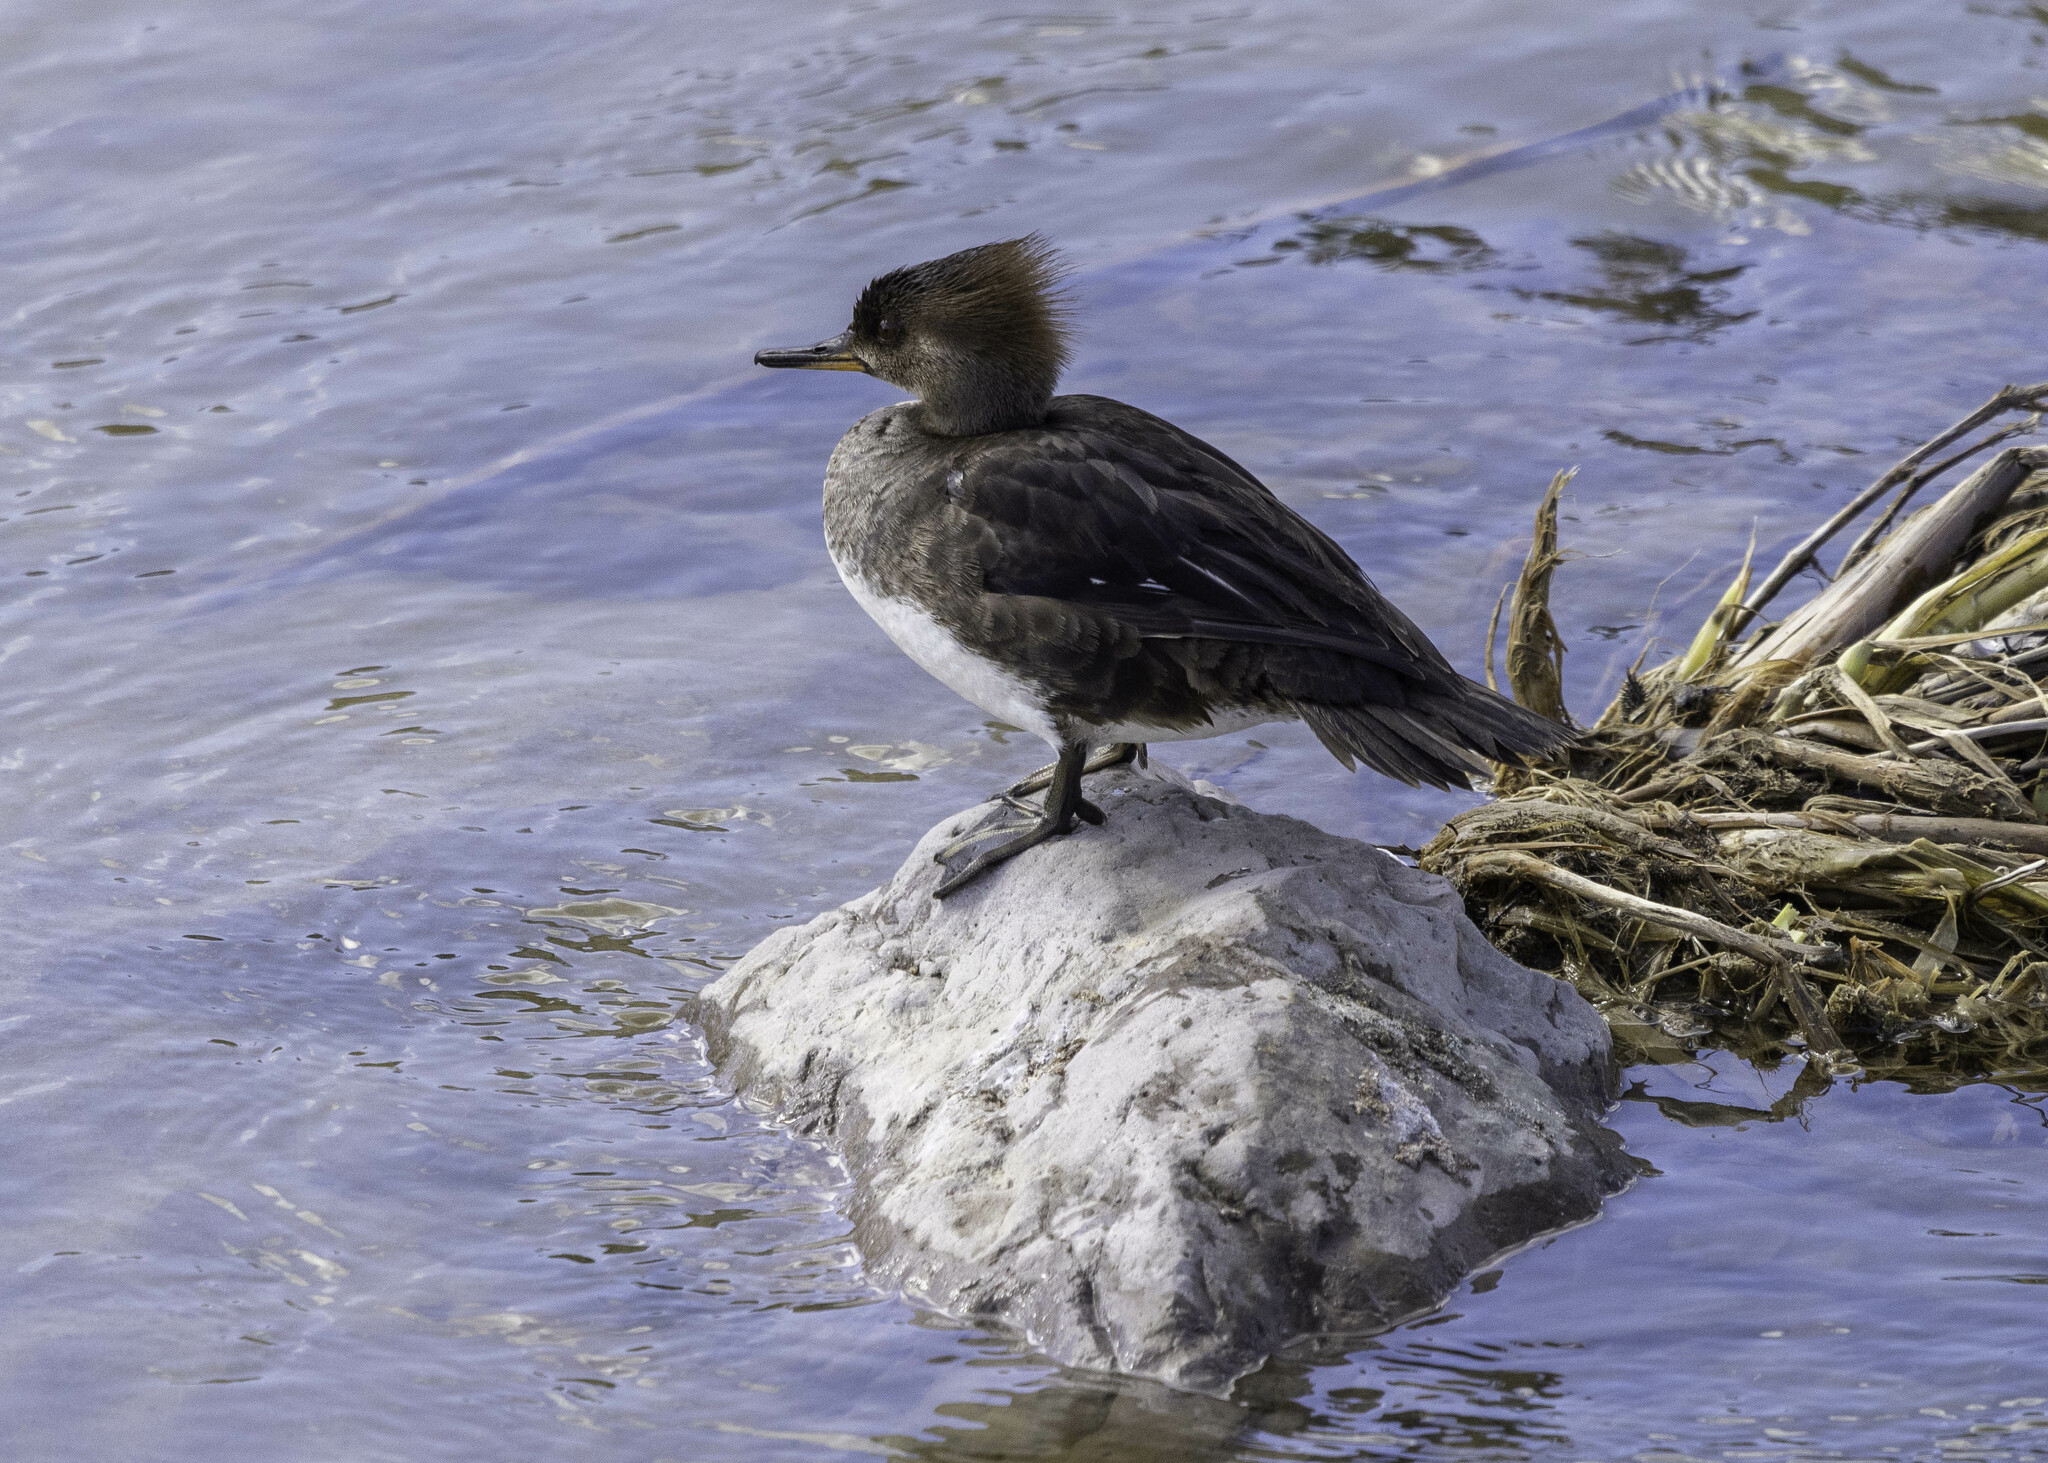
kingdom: Animalia
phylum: Chordata
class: Aves
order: Anseriformes
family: Anatidae
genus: Lophodytes
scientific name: Lophodytes cucullatus
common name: Hooded merganser
